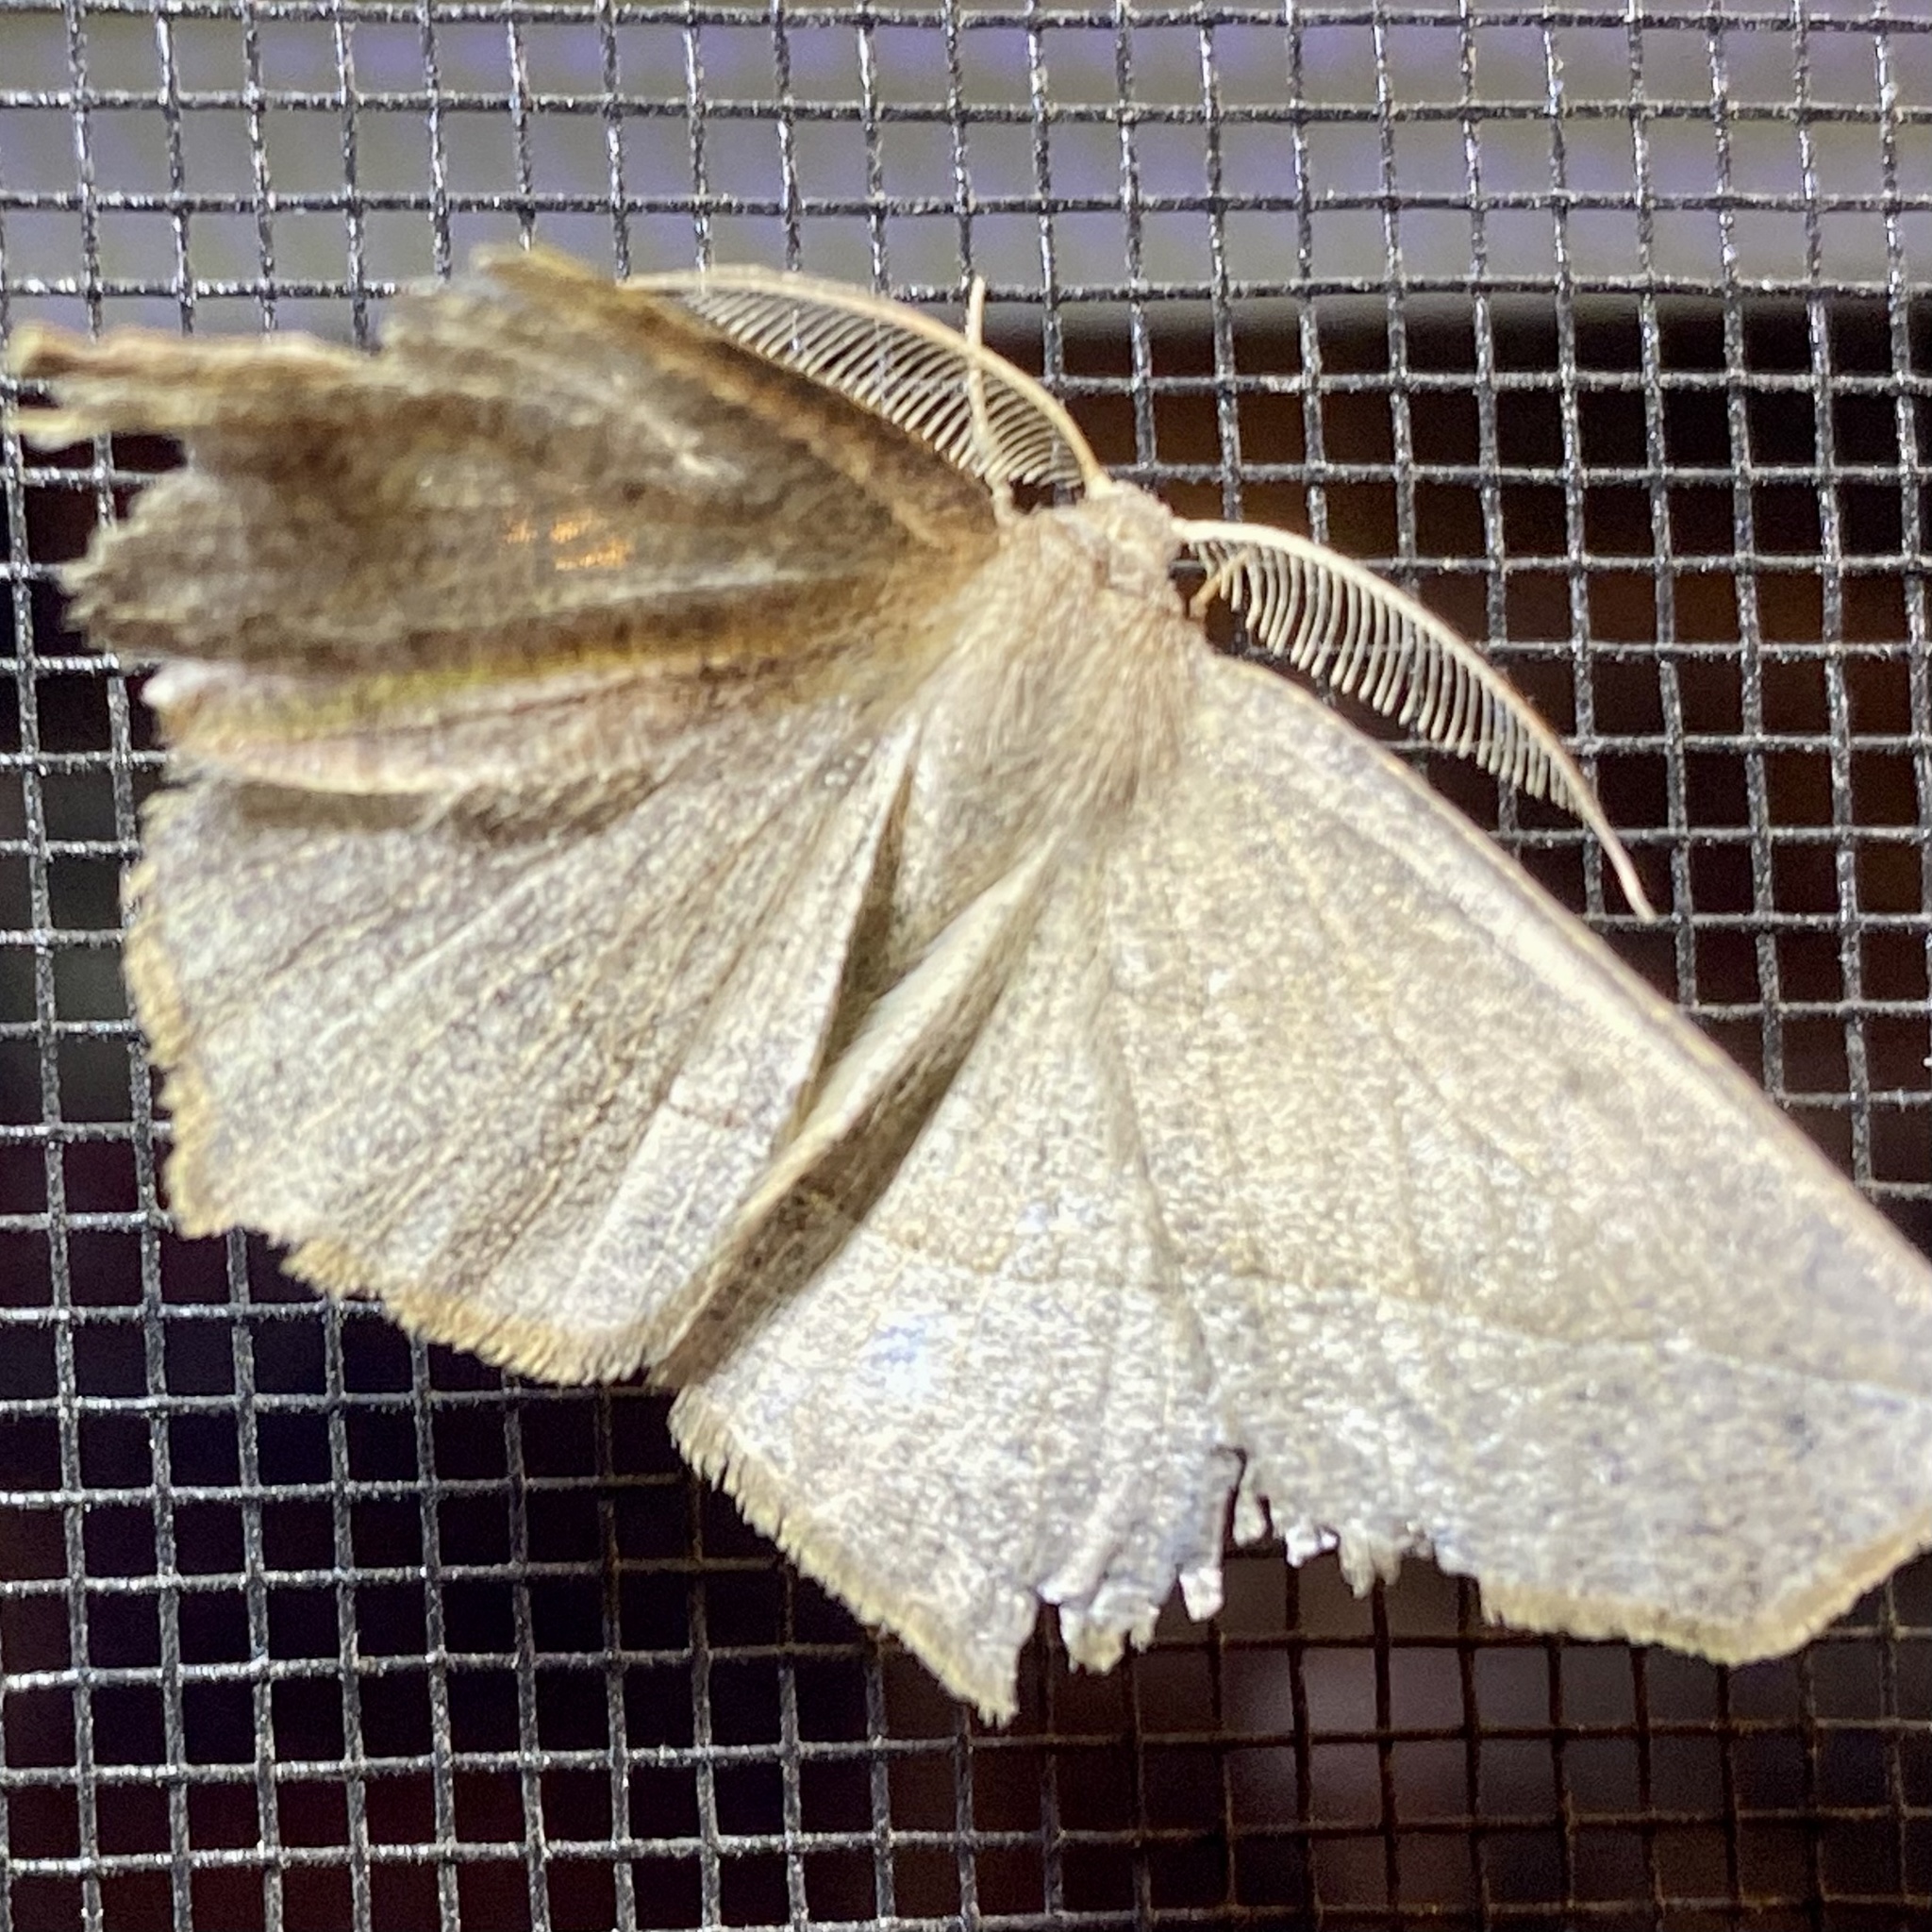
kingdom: Animalia
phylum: Arthropoda
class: Insecta
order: Lepidoptera
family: Geometridae
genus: Eusarca
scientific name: Eusarca falcata
